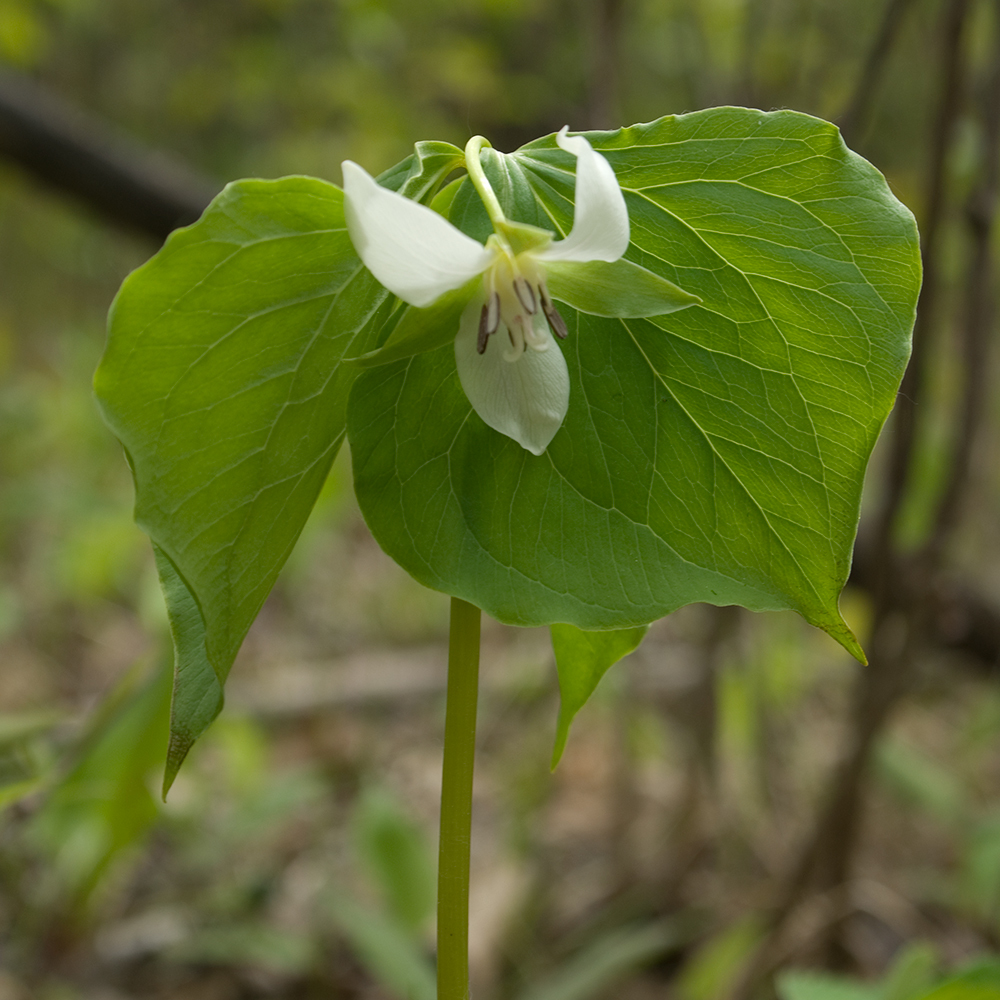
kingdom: Plantae
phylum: Tracheophyta
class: Liliopsida
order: Liliales
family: Melanthiaceae
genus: Trillium
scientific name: Trillium cernuum
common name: Nodding trillium
